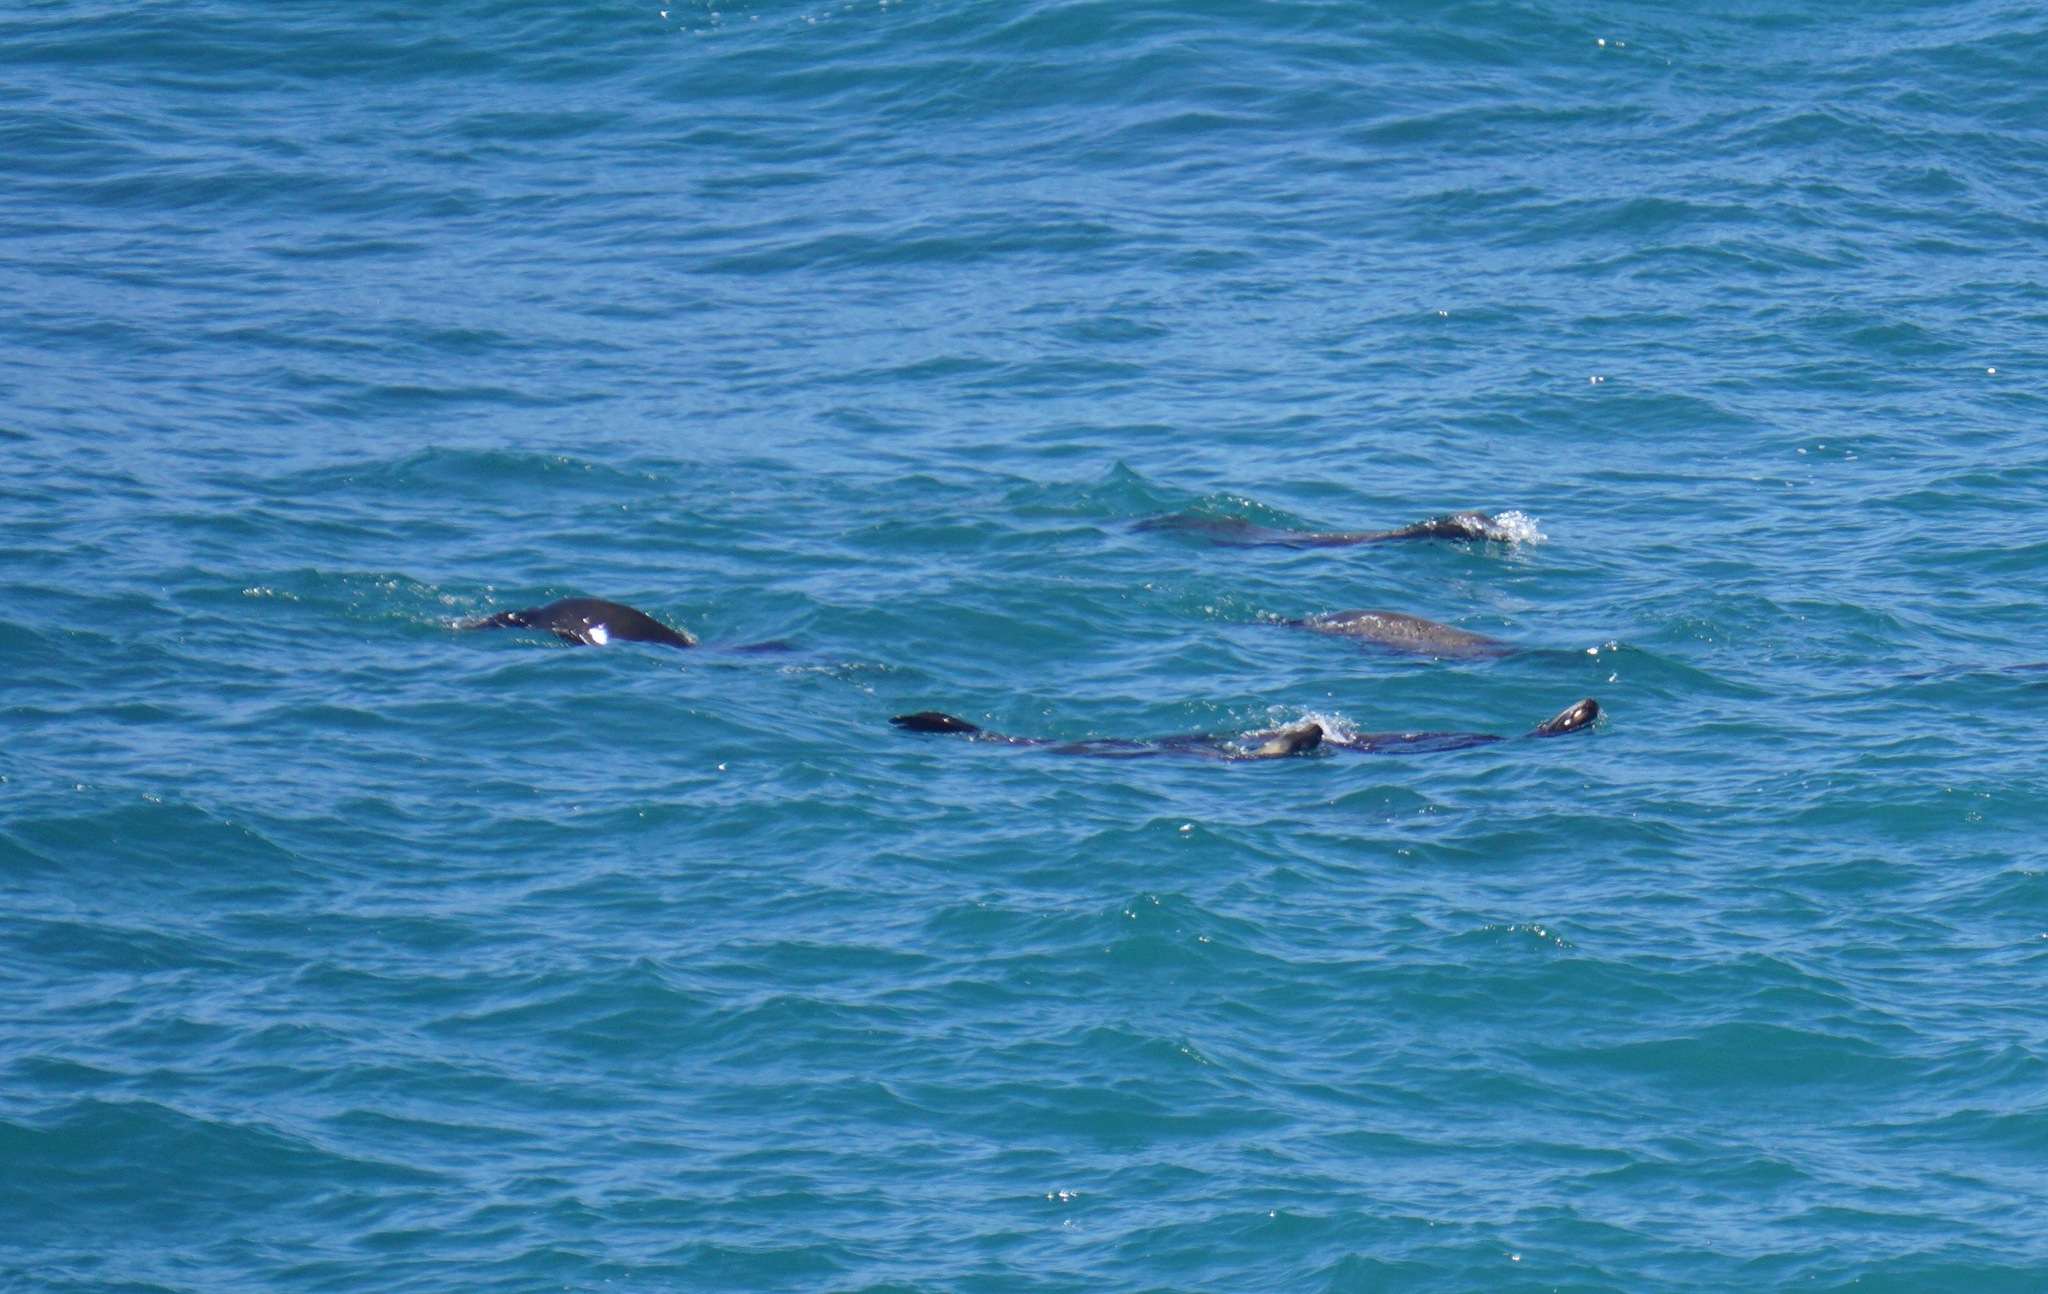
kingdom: Animalia
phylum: Chordata
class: Mammalia
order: Carnivora
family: Otariidae
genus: Zalophus
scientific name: Zalophus californianus
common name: California sea lion
